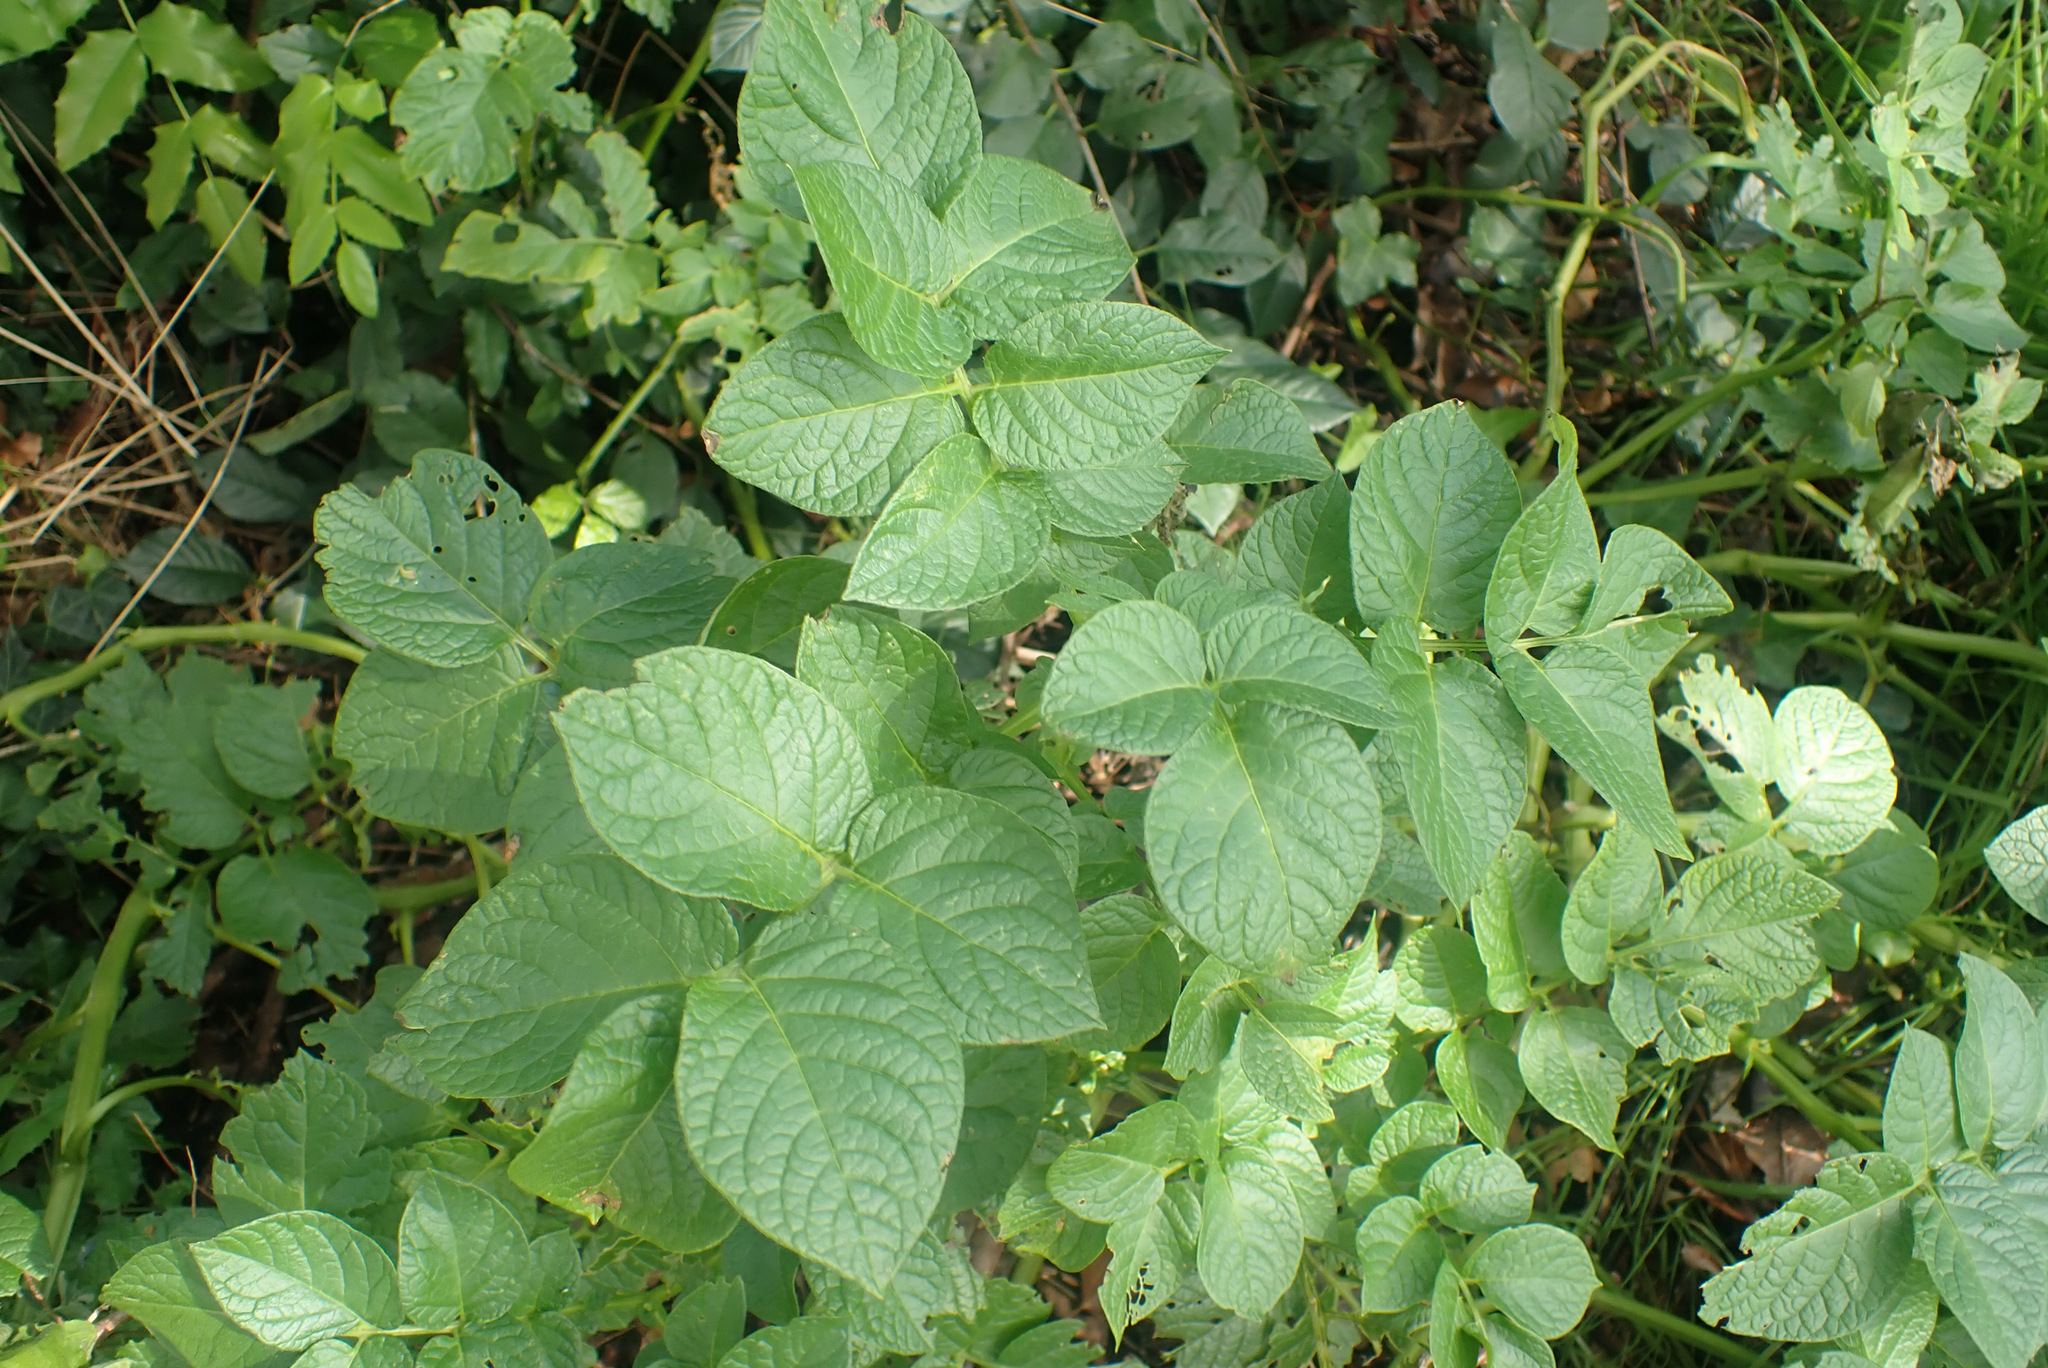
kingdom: Plantae
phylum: Tracheophyta
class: Magnoliopsida
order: Solanales
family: Solanaceae
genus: Solanum
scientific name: Solanum tuberosum
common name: Potato
